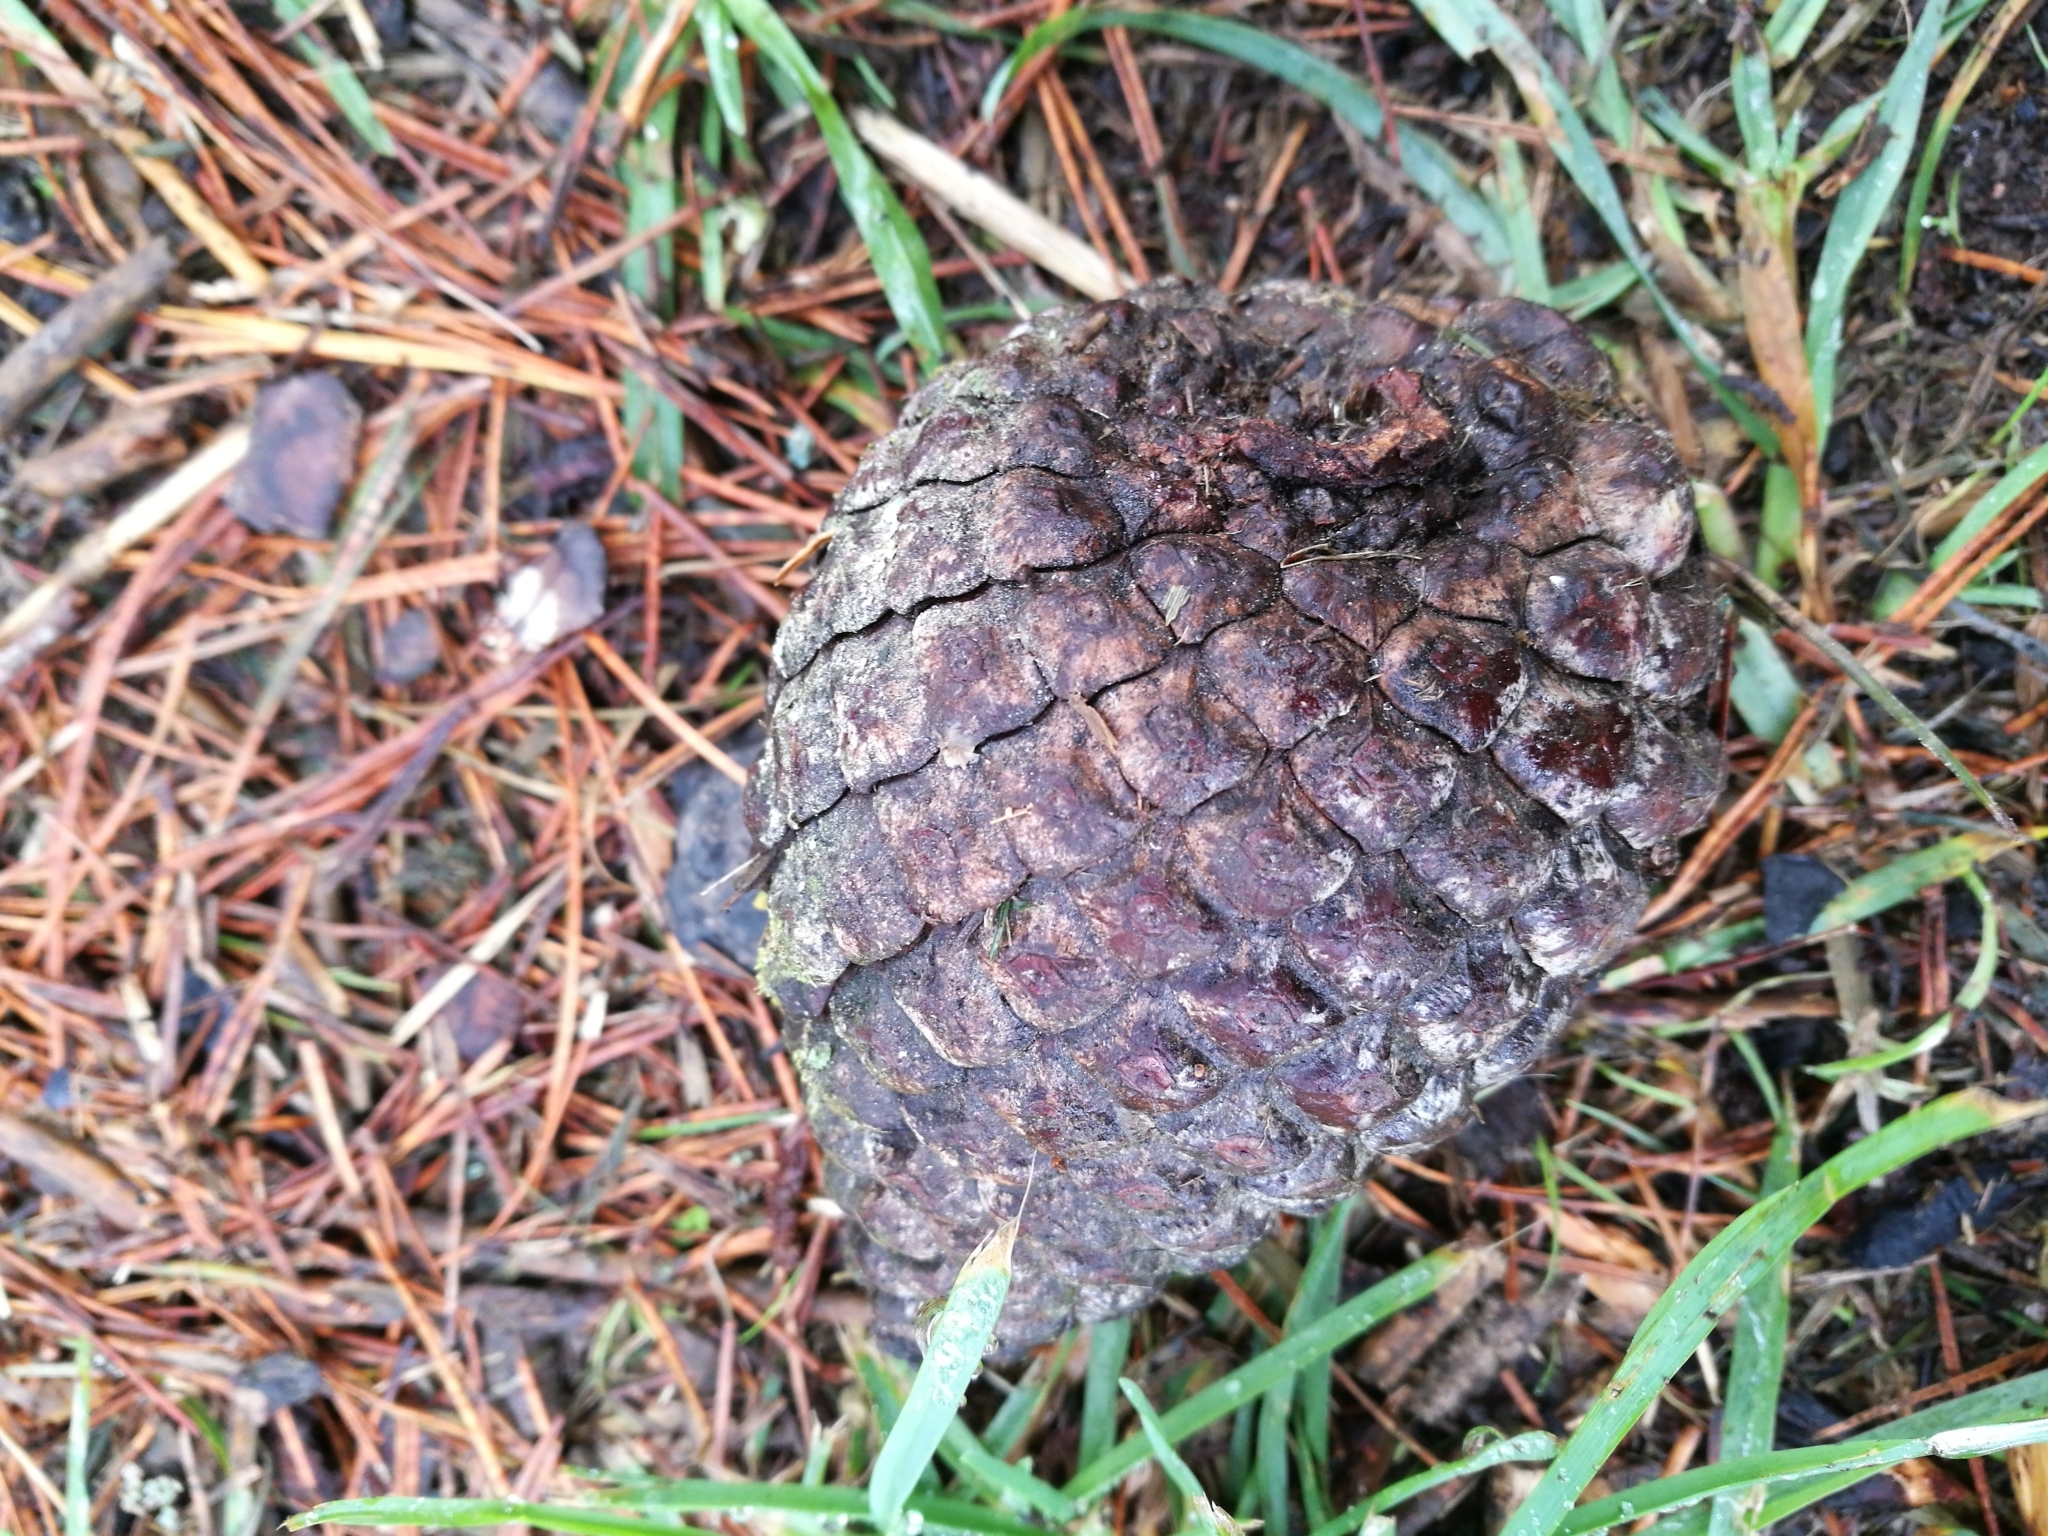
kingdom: Plantae
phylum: Tracheophyta
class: Pinopsida
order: Pinales
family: Pinaceae
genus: Pinus
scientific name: Pinus radiata
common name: Monterey pine
